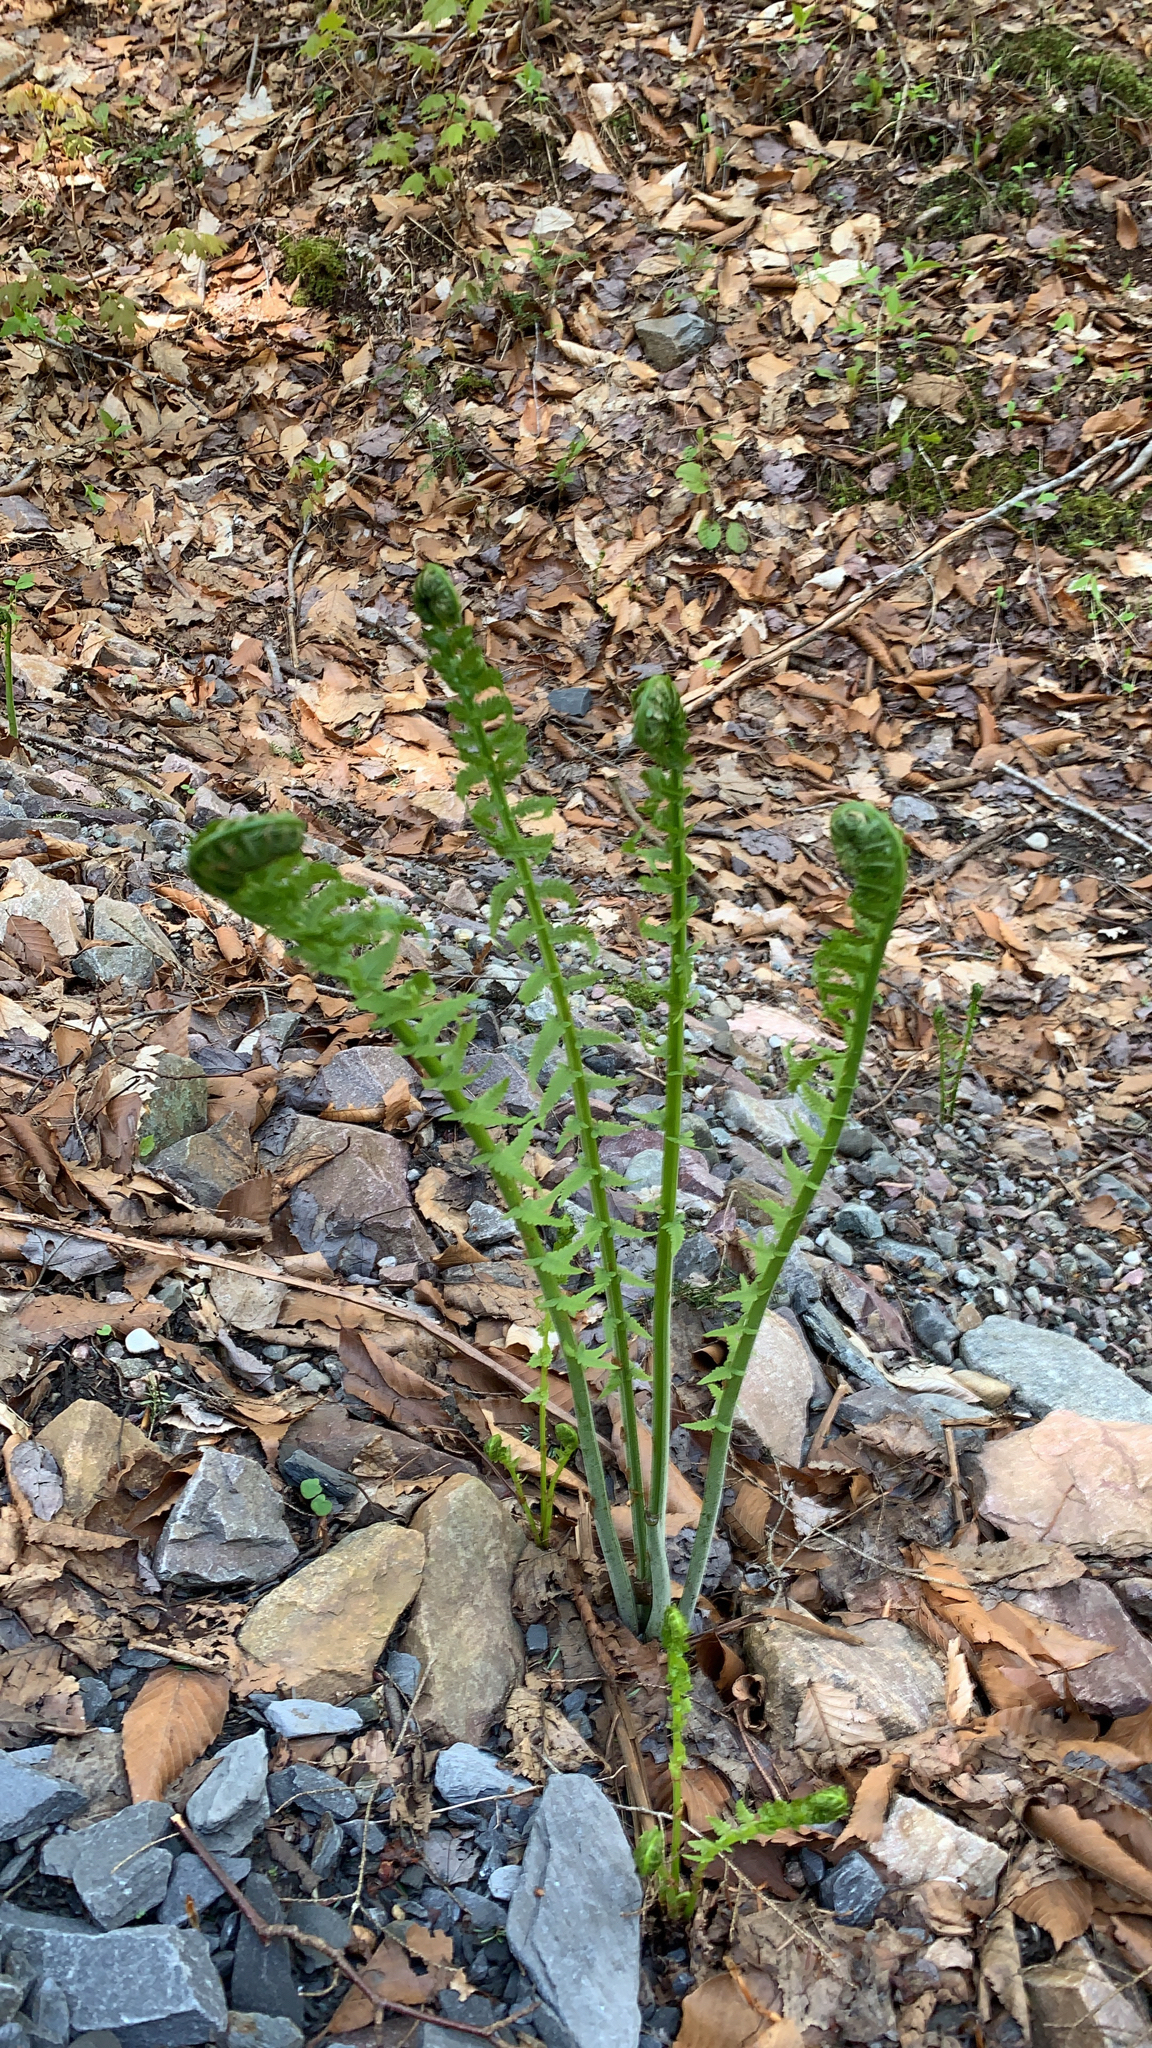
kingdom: Plantae
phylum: Tracheophyta
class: Polypodiopsida
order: Polypodiales
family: Onocleaceae
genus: Matteuccia
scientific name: Matteuccia struthiopteris
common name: Ostrich fern
